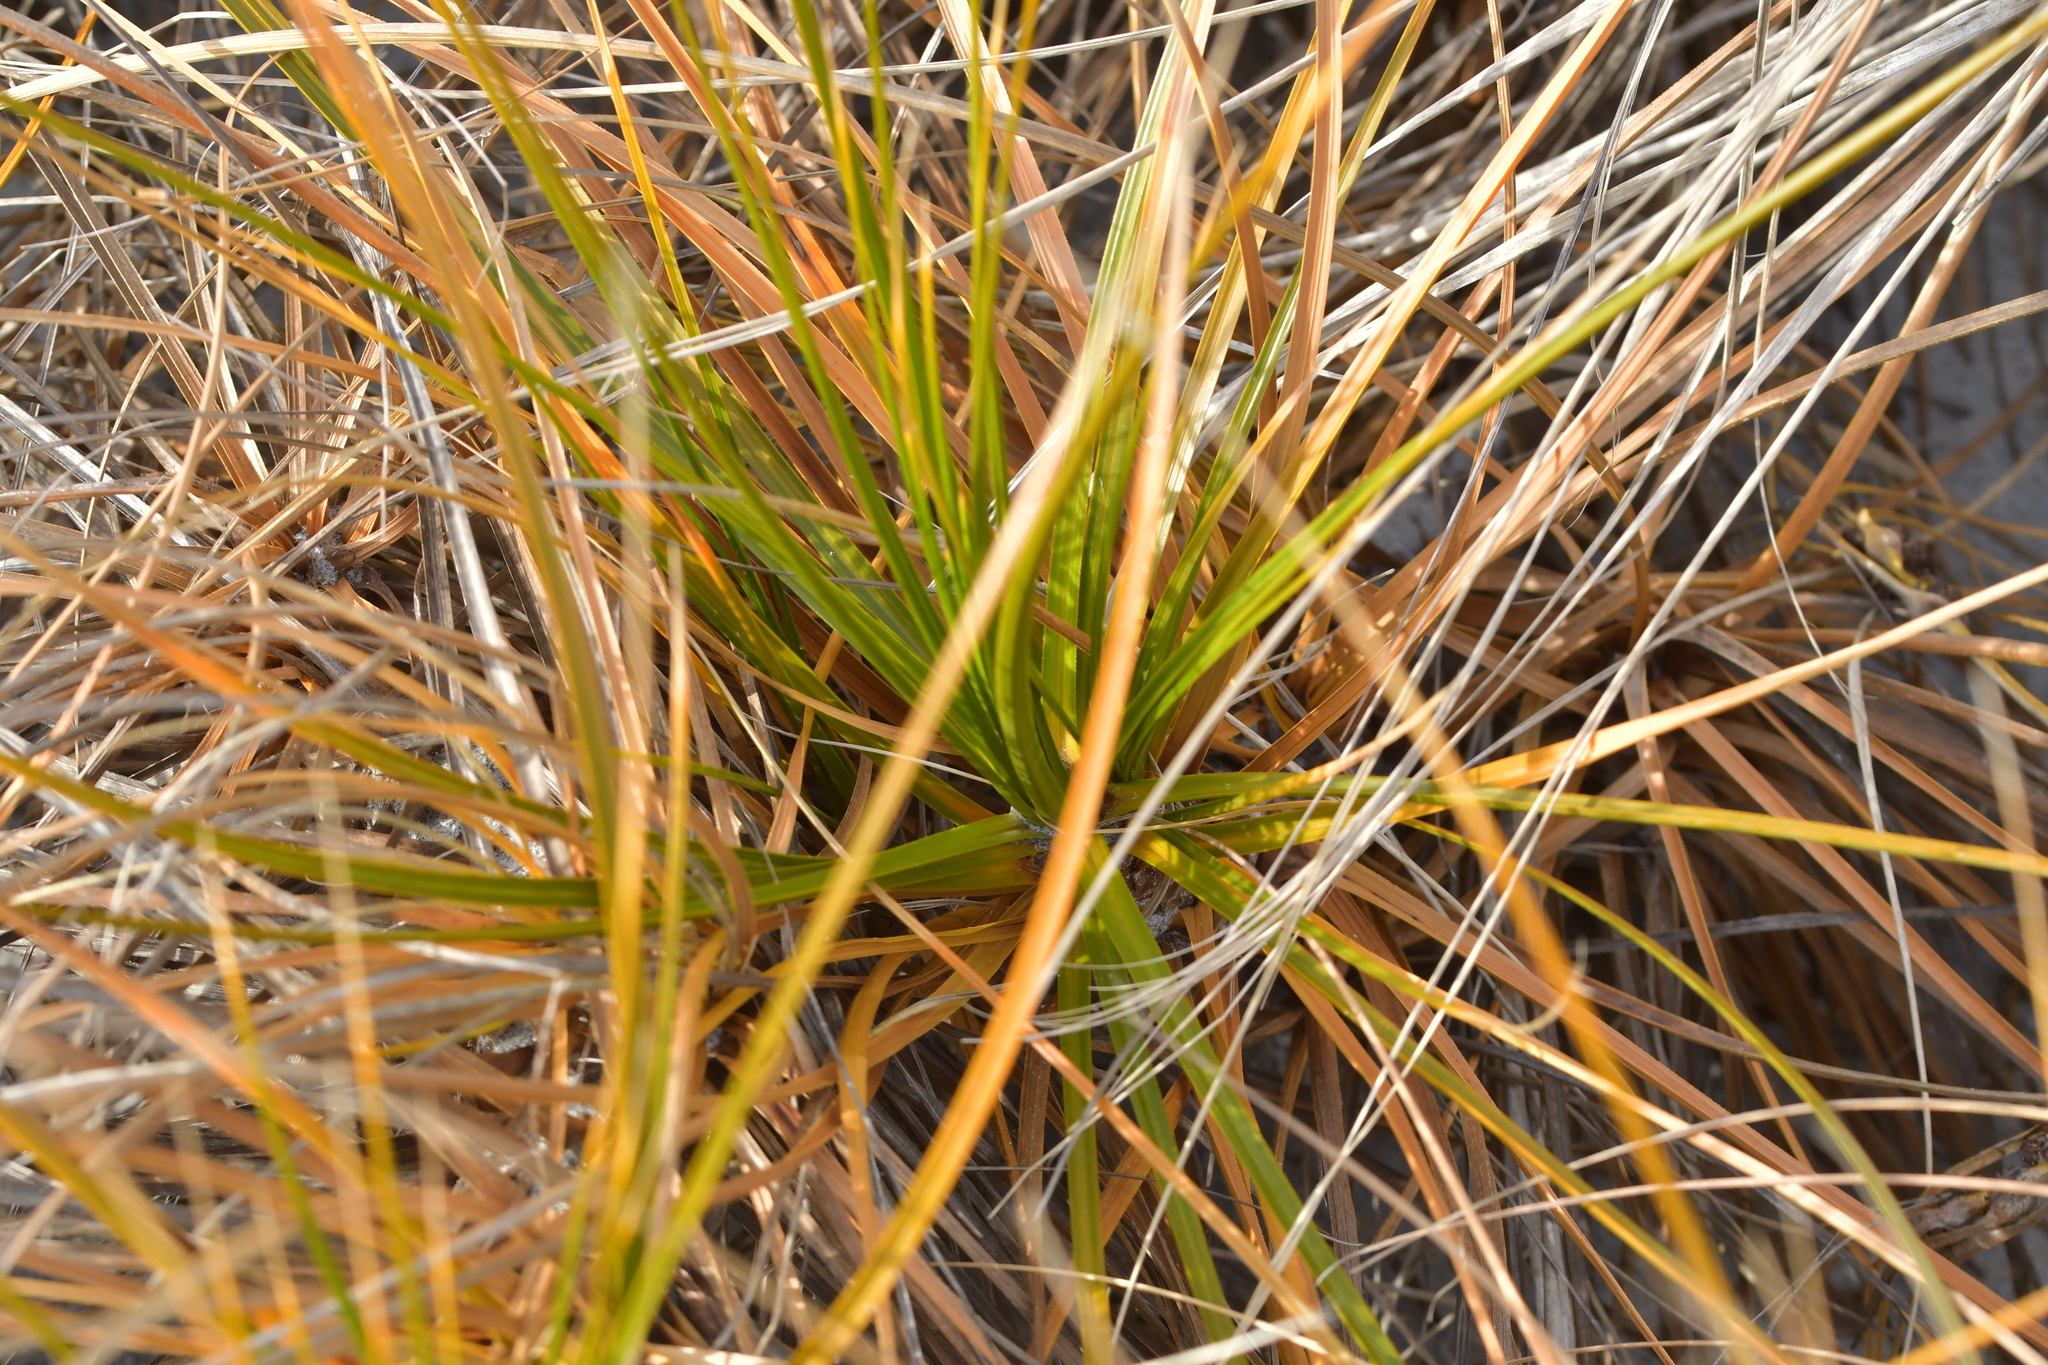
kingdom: Plantae
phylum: Tracheophyta
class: Liliopsida
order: Poales
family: Cyperaceae
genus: Ficinia
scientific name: Ficinia spiralis
